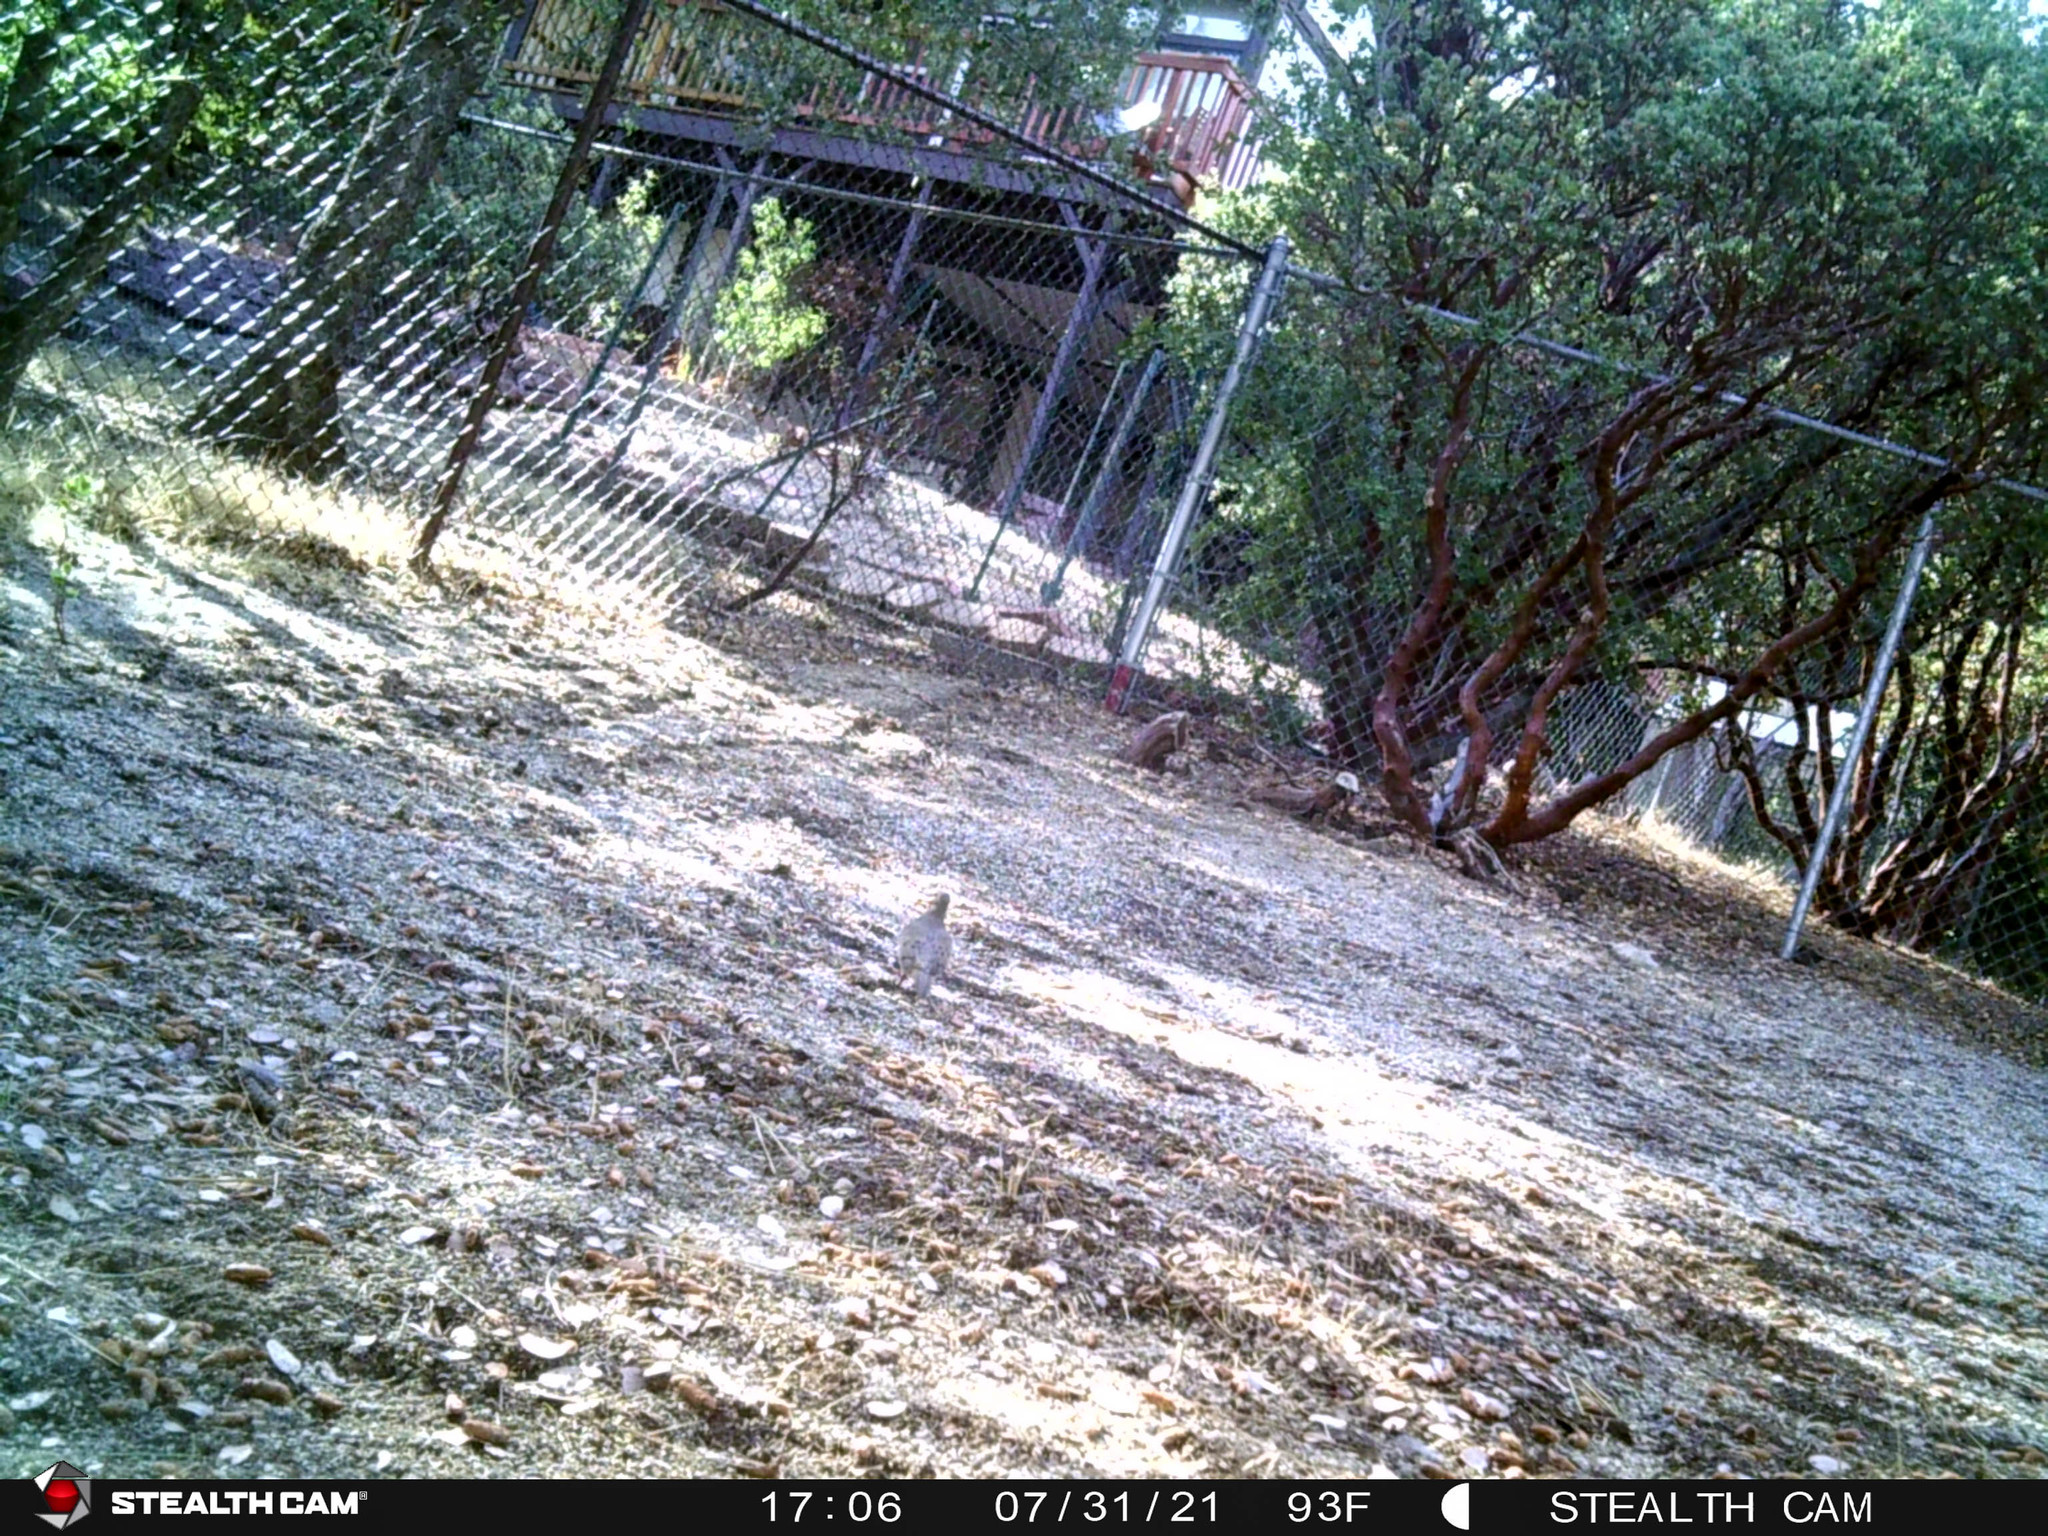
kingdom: Animalia
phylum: Chordata
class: Aves
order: Columbiformes
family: Columbidae
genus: Zenaida
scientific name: Zenaida macroura
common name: Mourning dove
